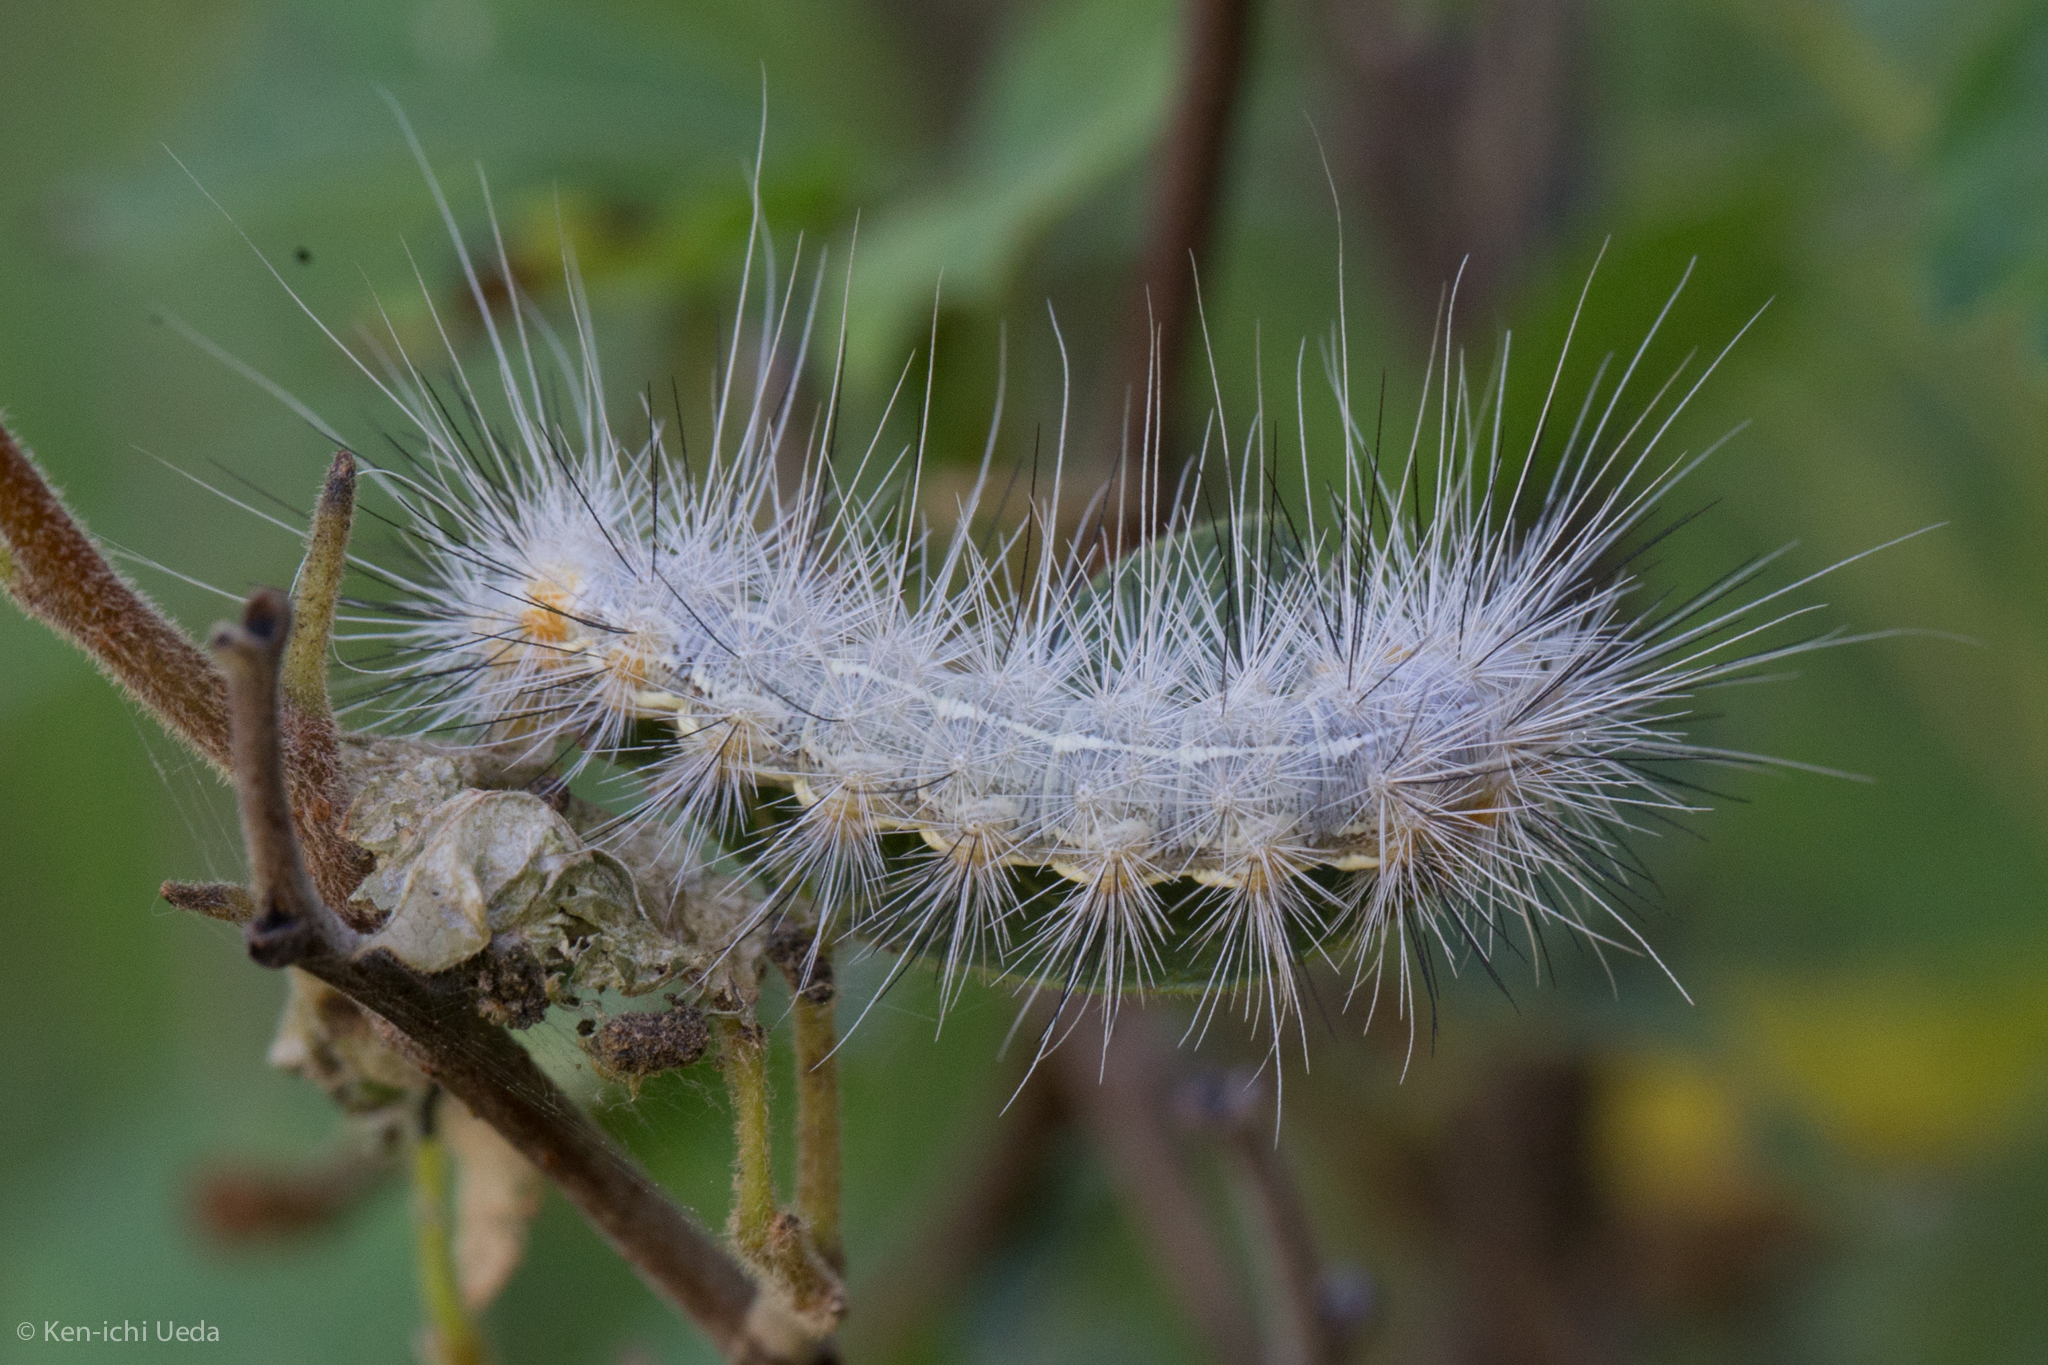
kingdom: Animalia
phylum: Arthropoda
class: Insecta
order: Lepidoptera
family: Erebidae
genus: Hypercompe
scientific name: Hypercompe suffusa
